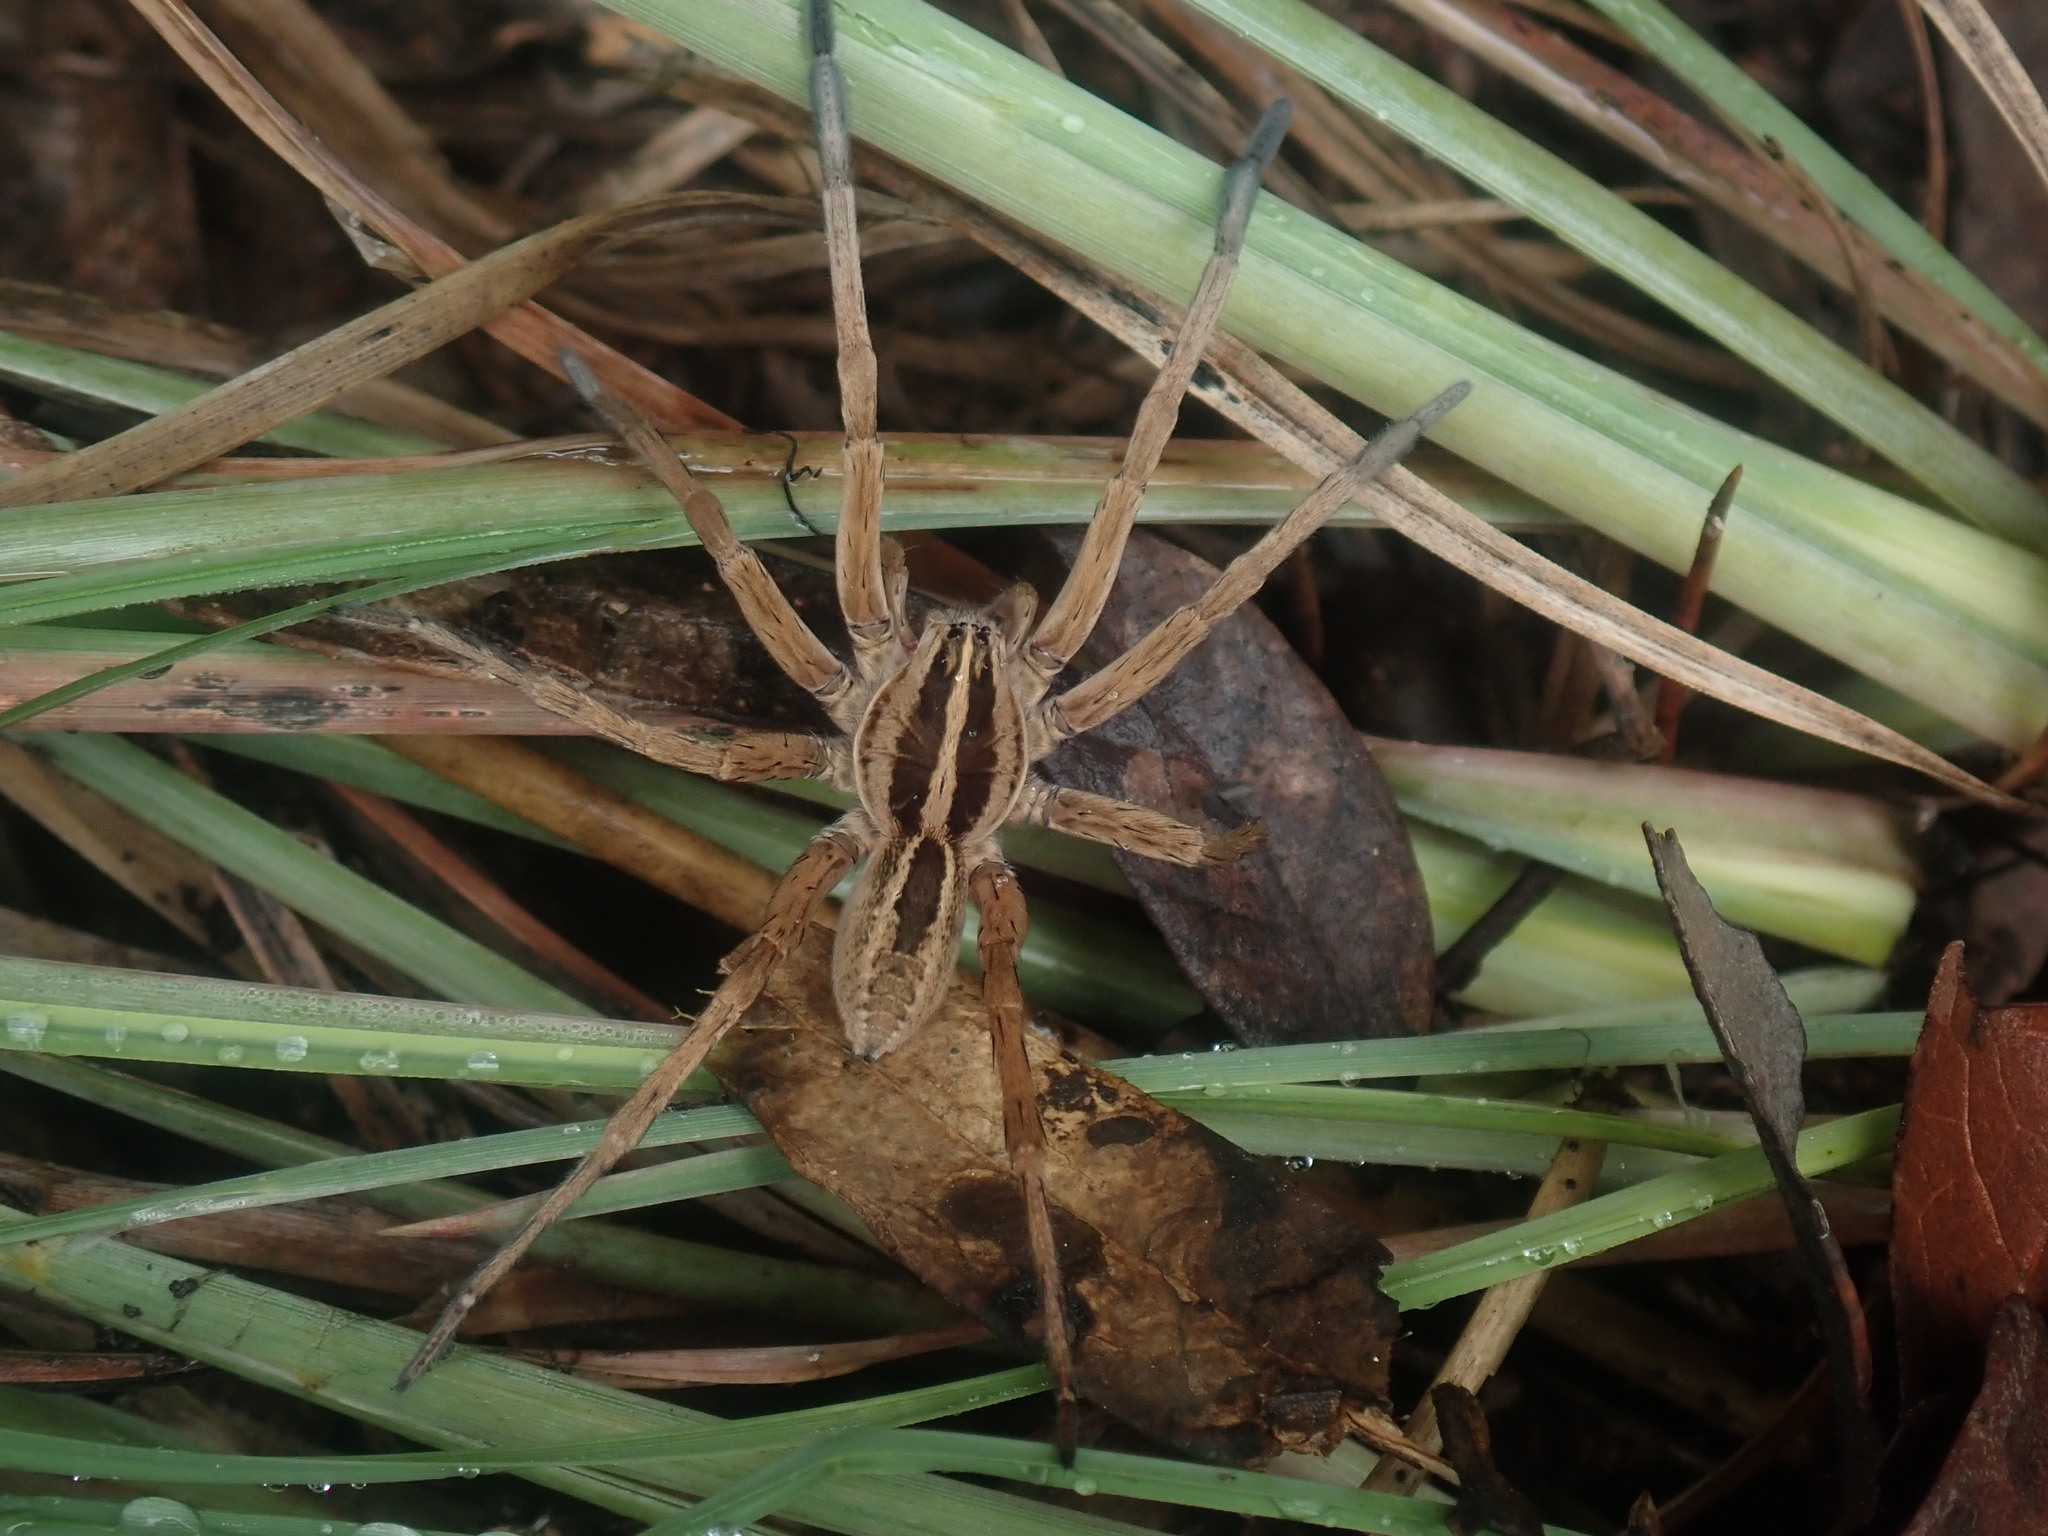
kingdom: Animalia
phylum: Arthropoda
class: Arachnida
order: Araneae
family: Lycosidae
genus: Rabidosa
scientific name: Rabidosa santrita
